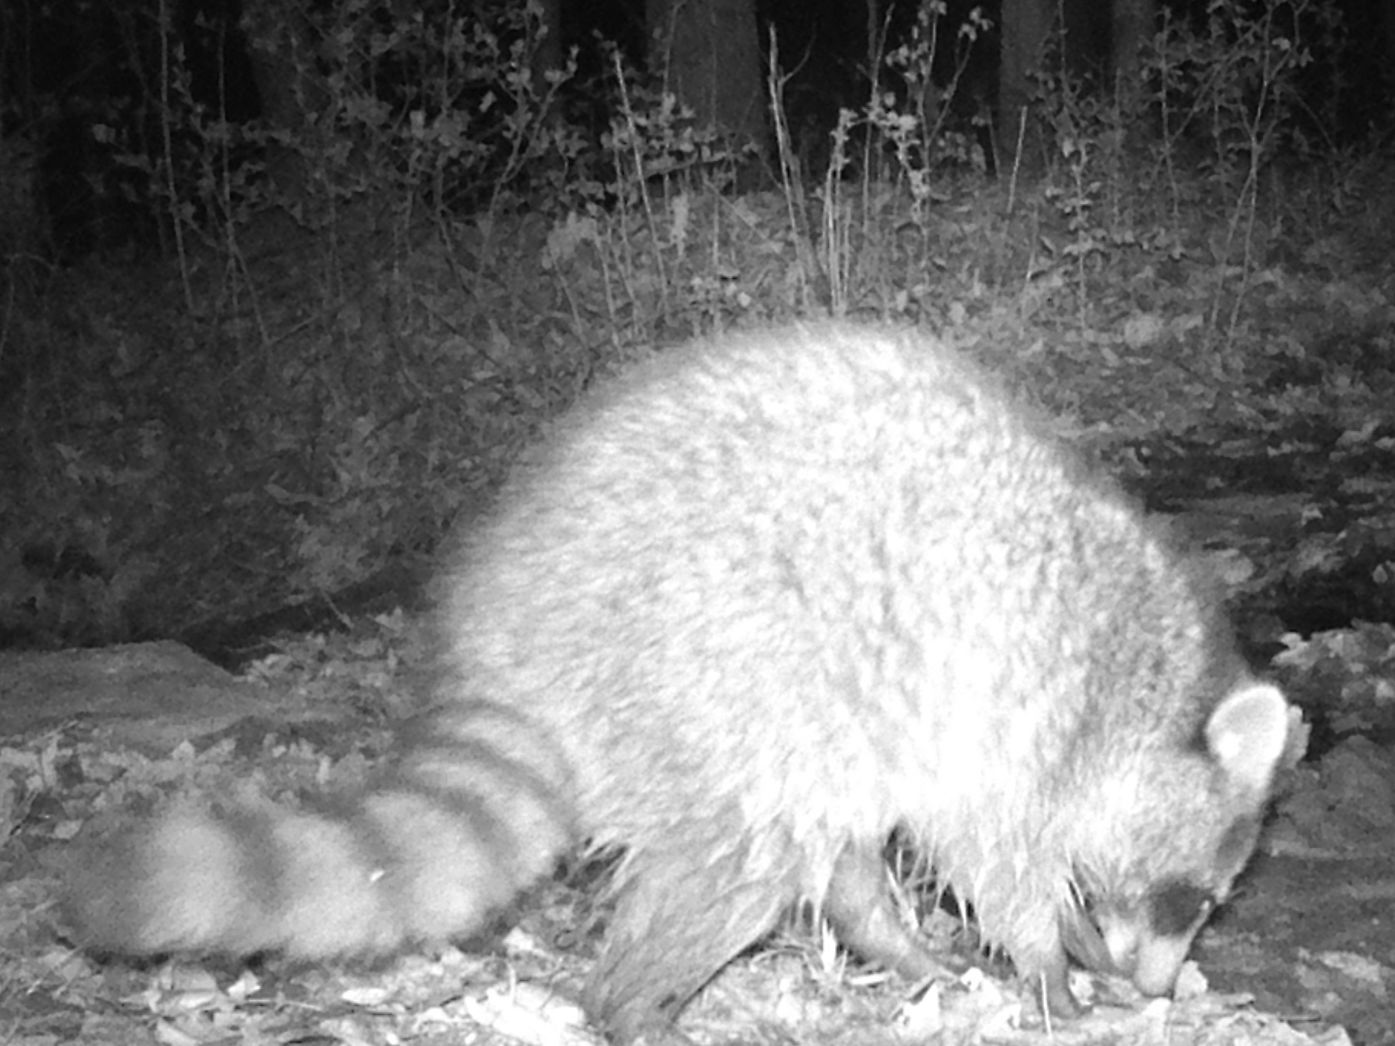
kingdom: Animalia
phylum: Chordata
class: Mammalia
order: Carnivora
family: Procyonidae
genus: Procyon
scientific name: Procyon lotor
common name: Raccoon
